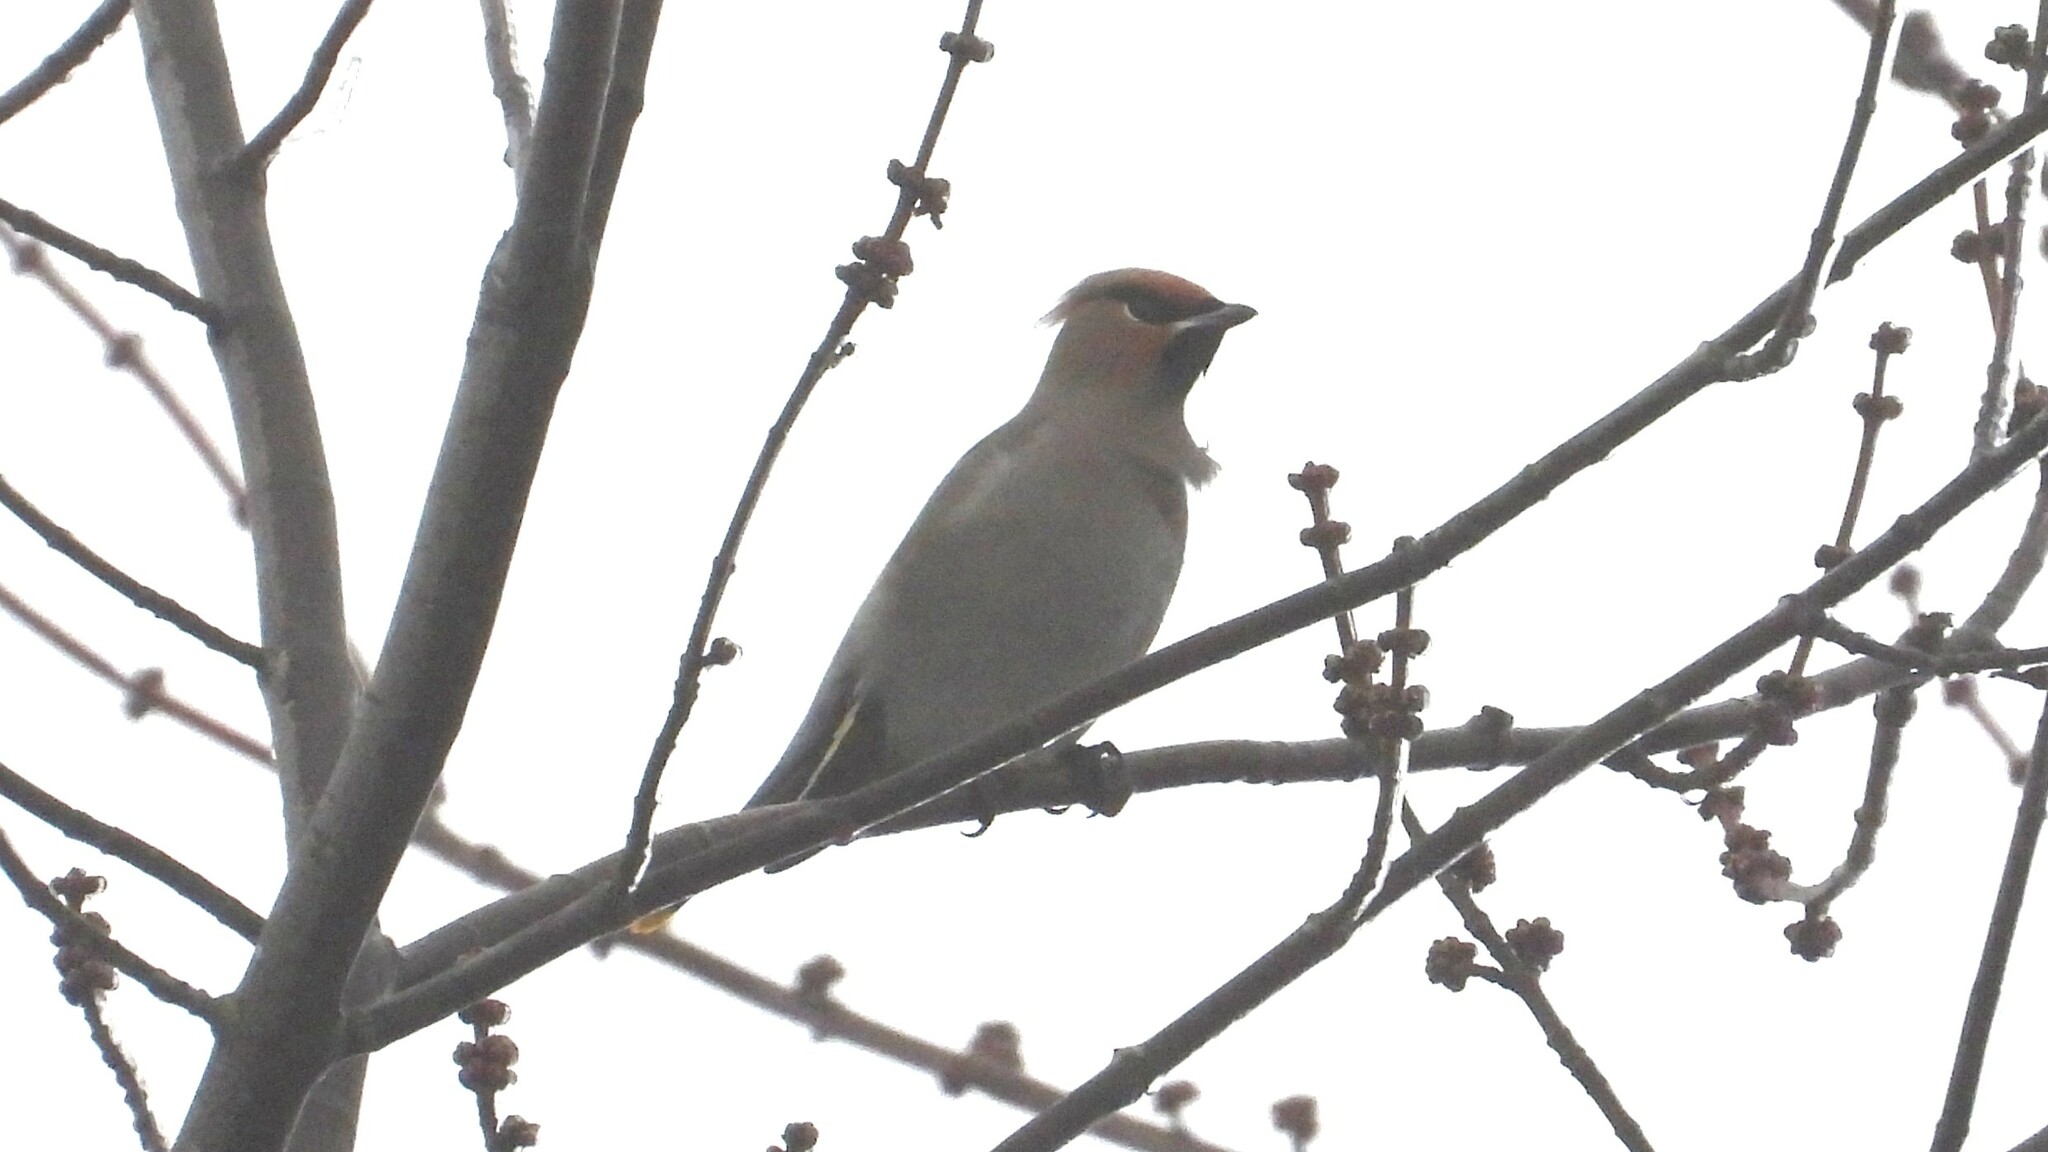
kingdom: Animalia
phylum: Chordata
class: Aves
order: Passeriformes
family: Bombycillidae
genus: Bombycilla
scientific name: Bombycilla garrulus
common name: Bohemian waxwing
